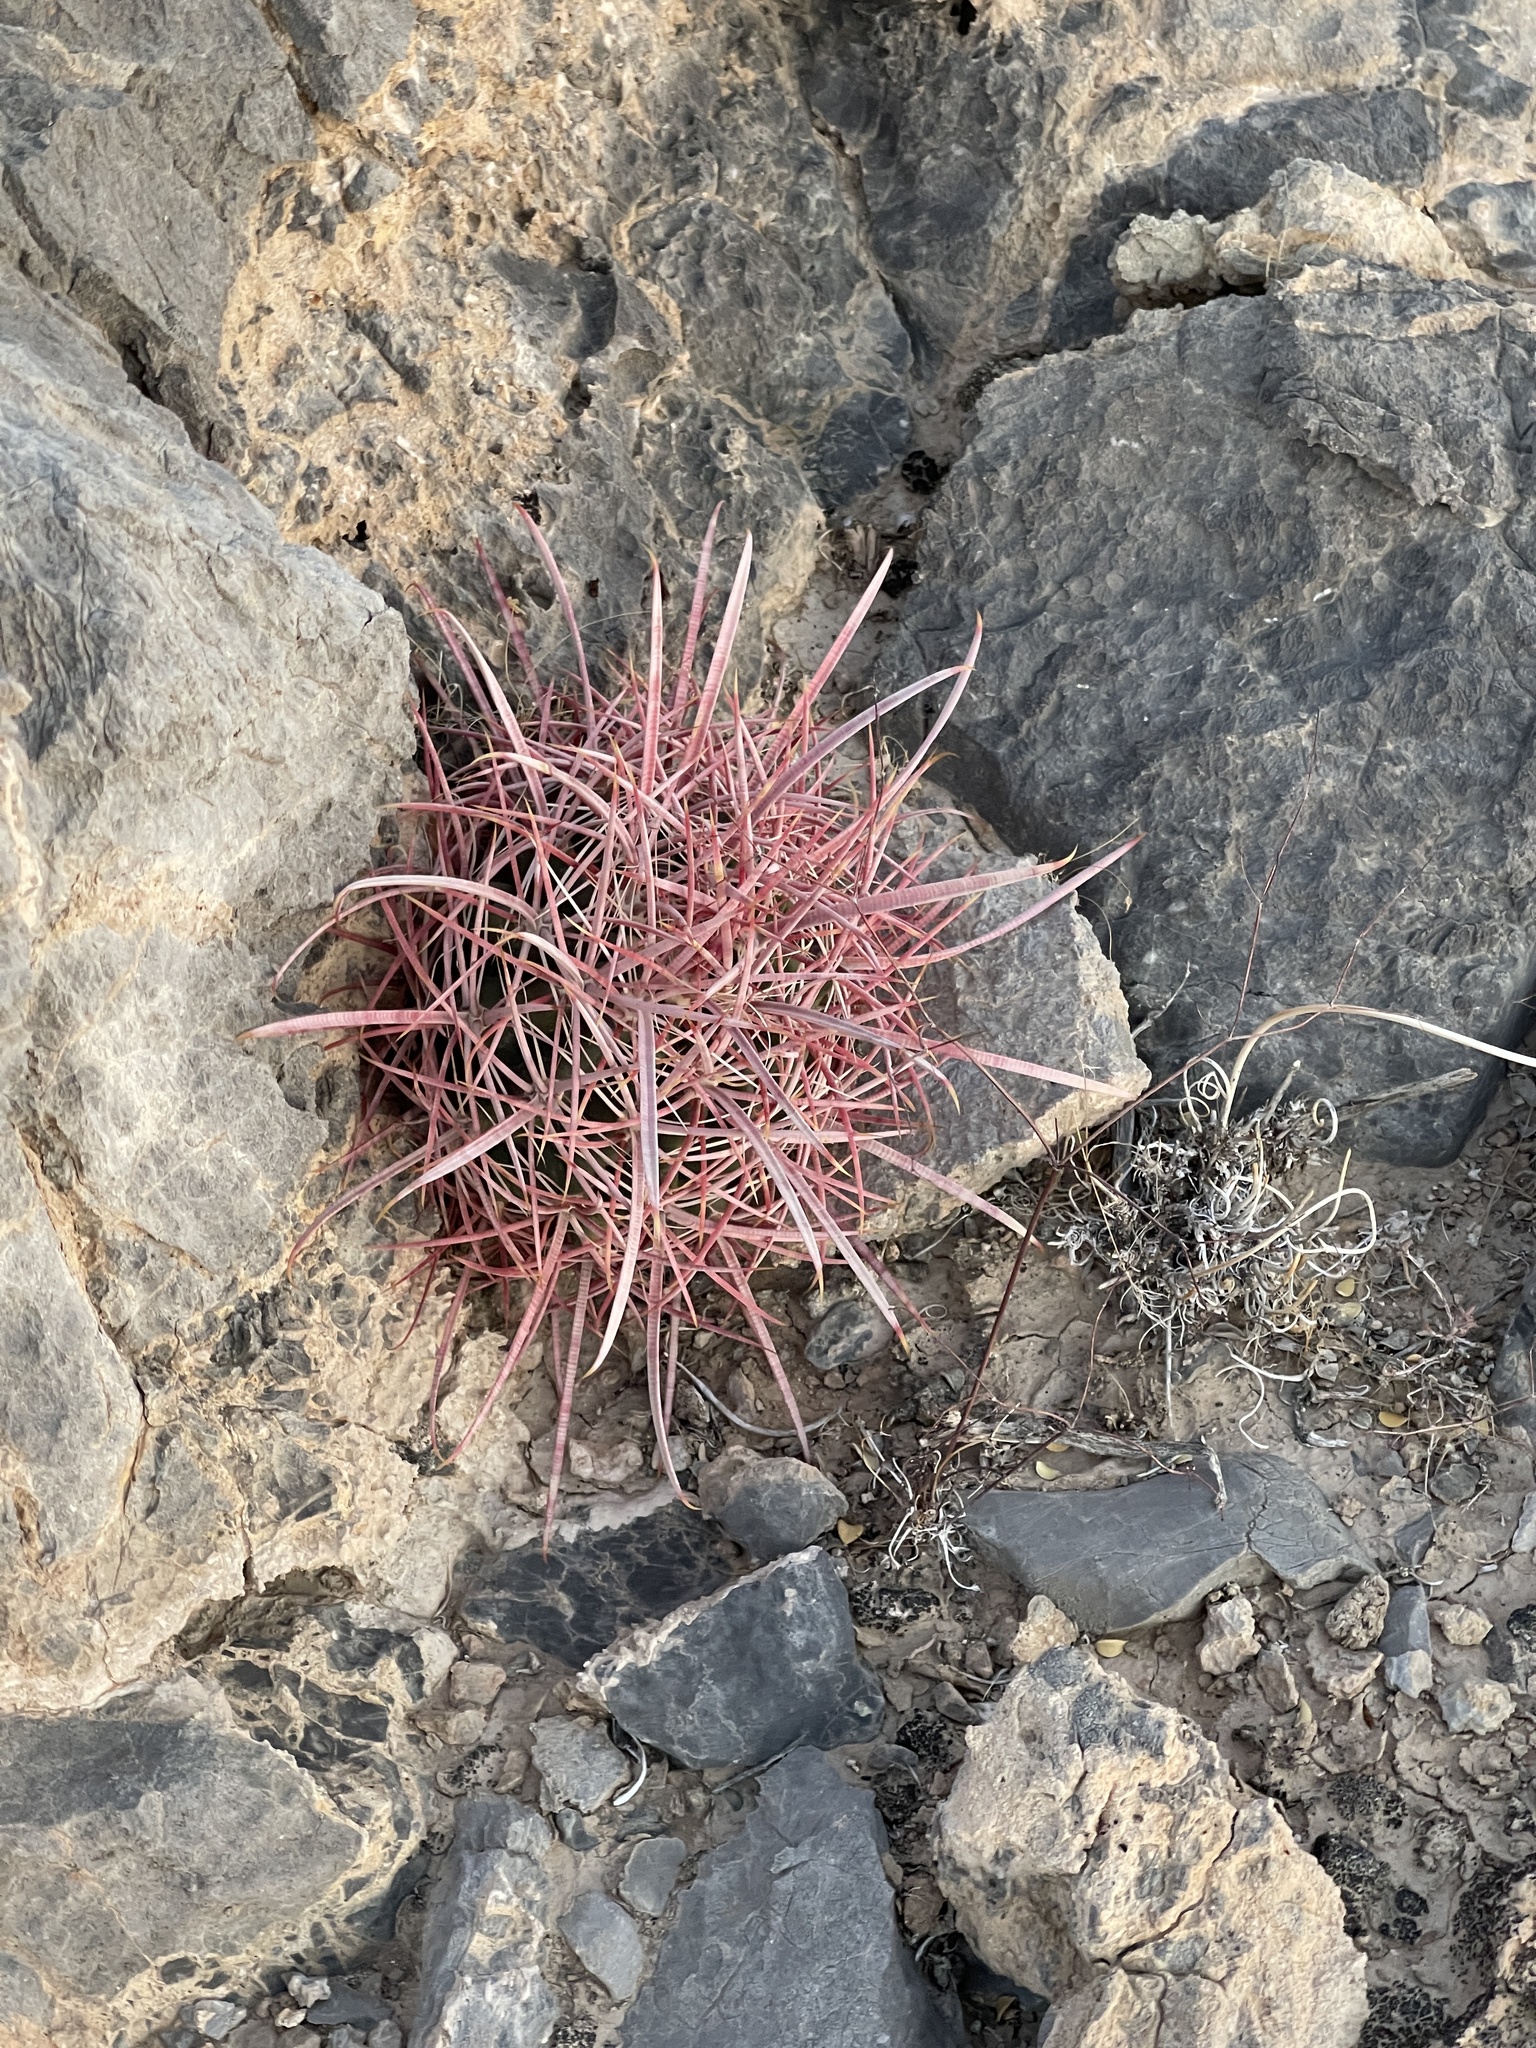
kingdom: Plantae
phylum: Tracheophyta
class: Magnoliopsida
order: Caryophyllales
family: Cactaceae
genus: Ferocactus
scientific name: Ferocactus cylindraceus
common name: California barrel cactus
